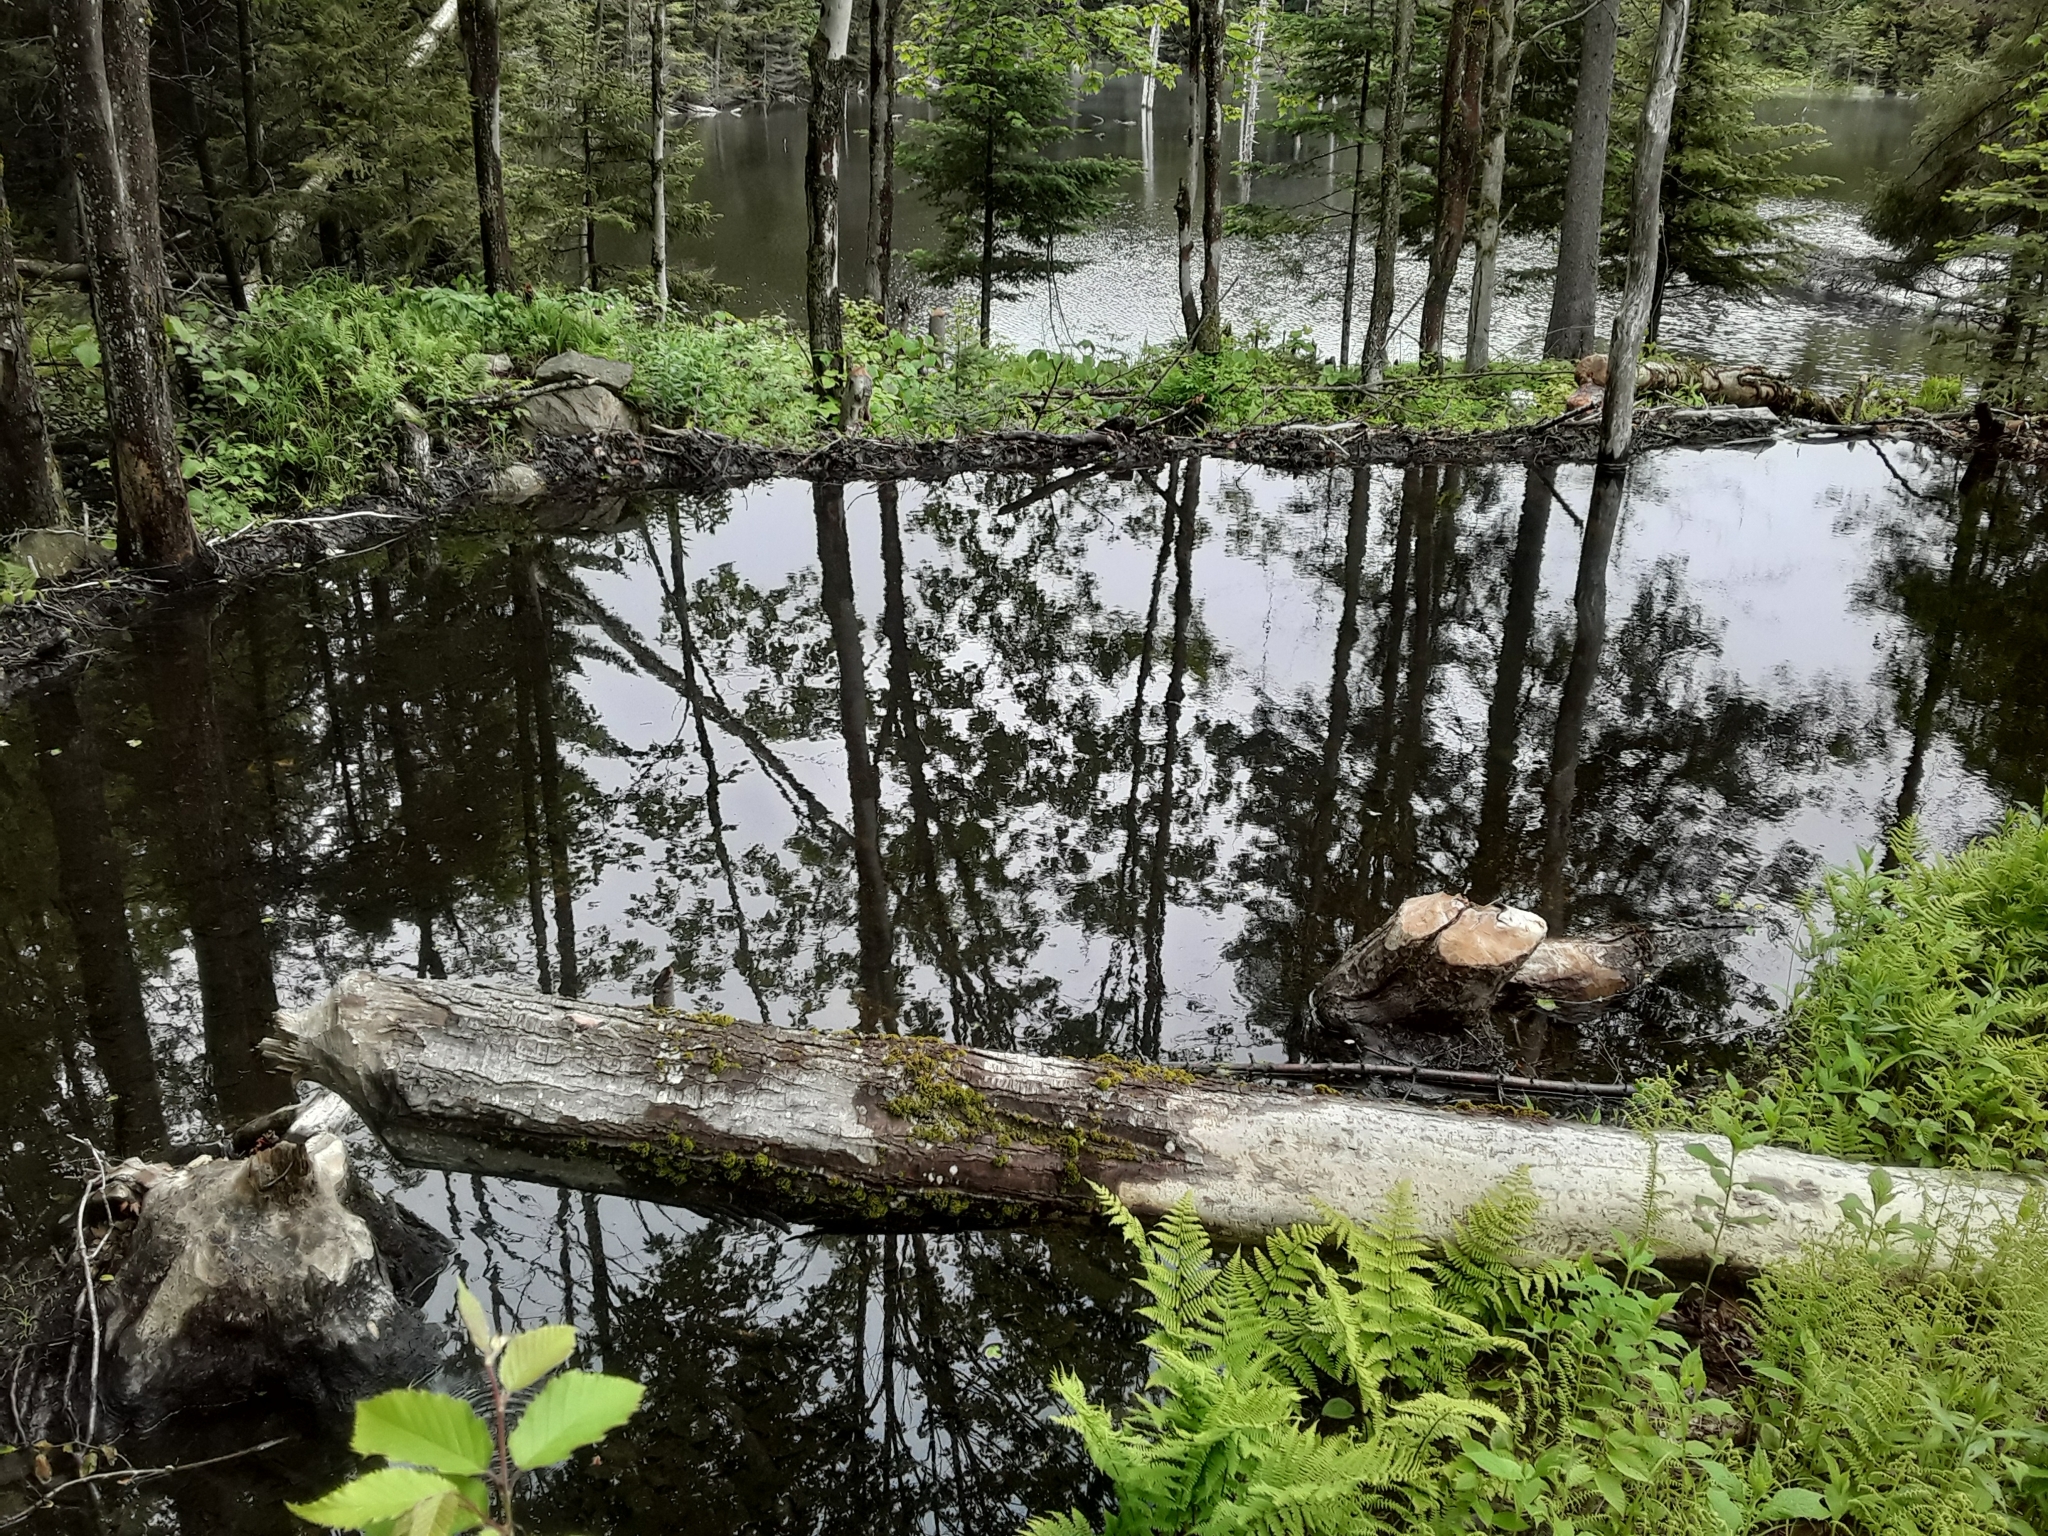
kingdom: Animalia
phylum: Chordata
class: Mammalia
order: Rodentia
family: Castoridae
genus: Castor
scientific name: Castor canadensis
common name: American beaver
